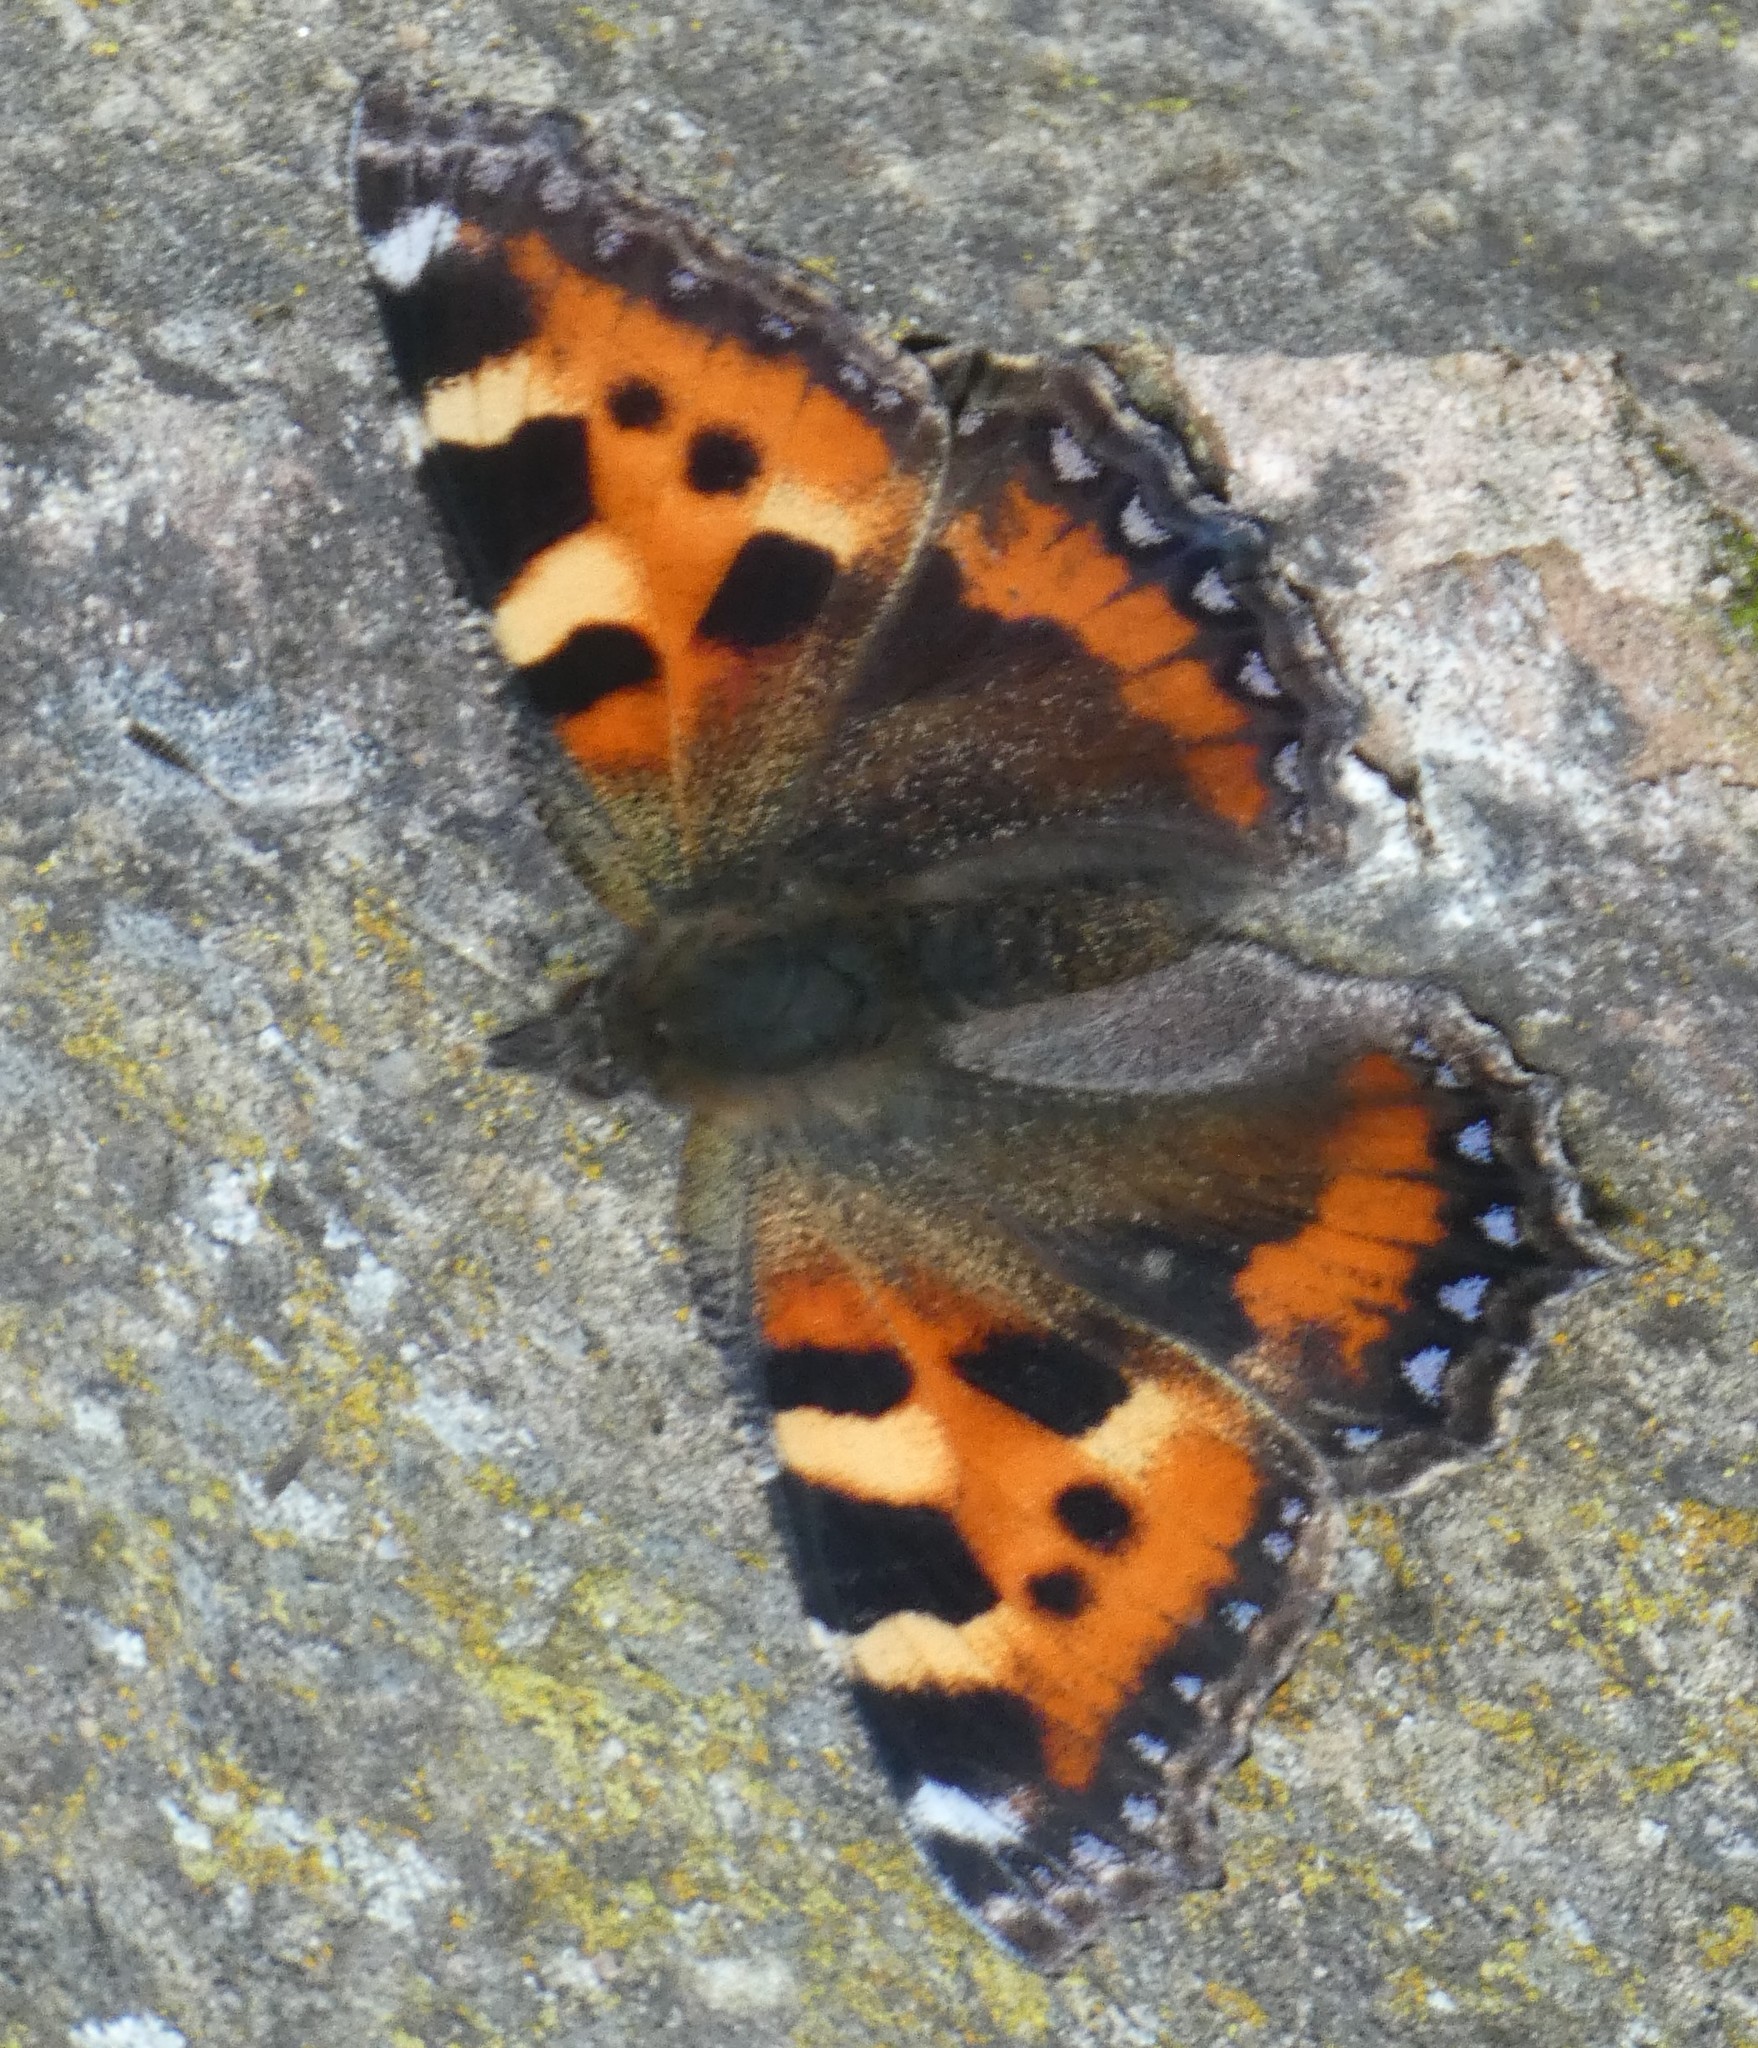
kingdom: Animalia
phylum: Arthropoda
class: Insecta
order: Lepidoptera
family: Nymphalidae
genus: Aglais
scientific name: Aglais urticae
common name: Small tortoiseshell
